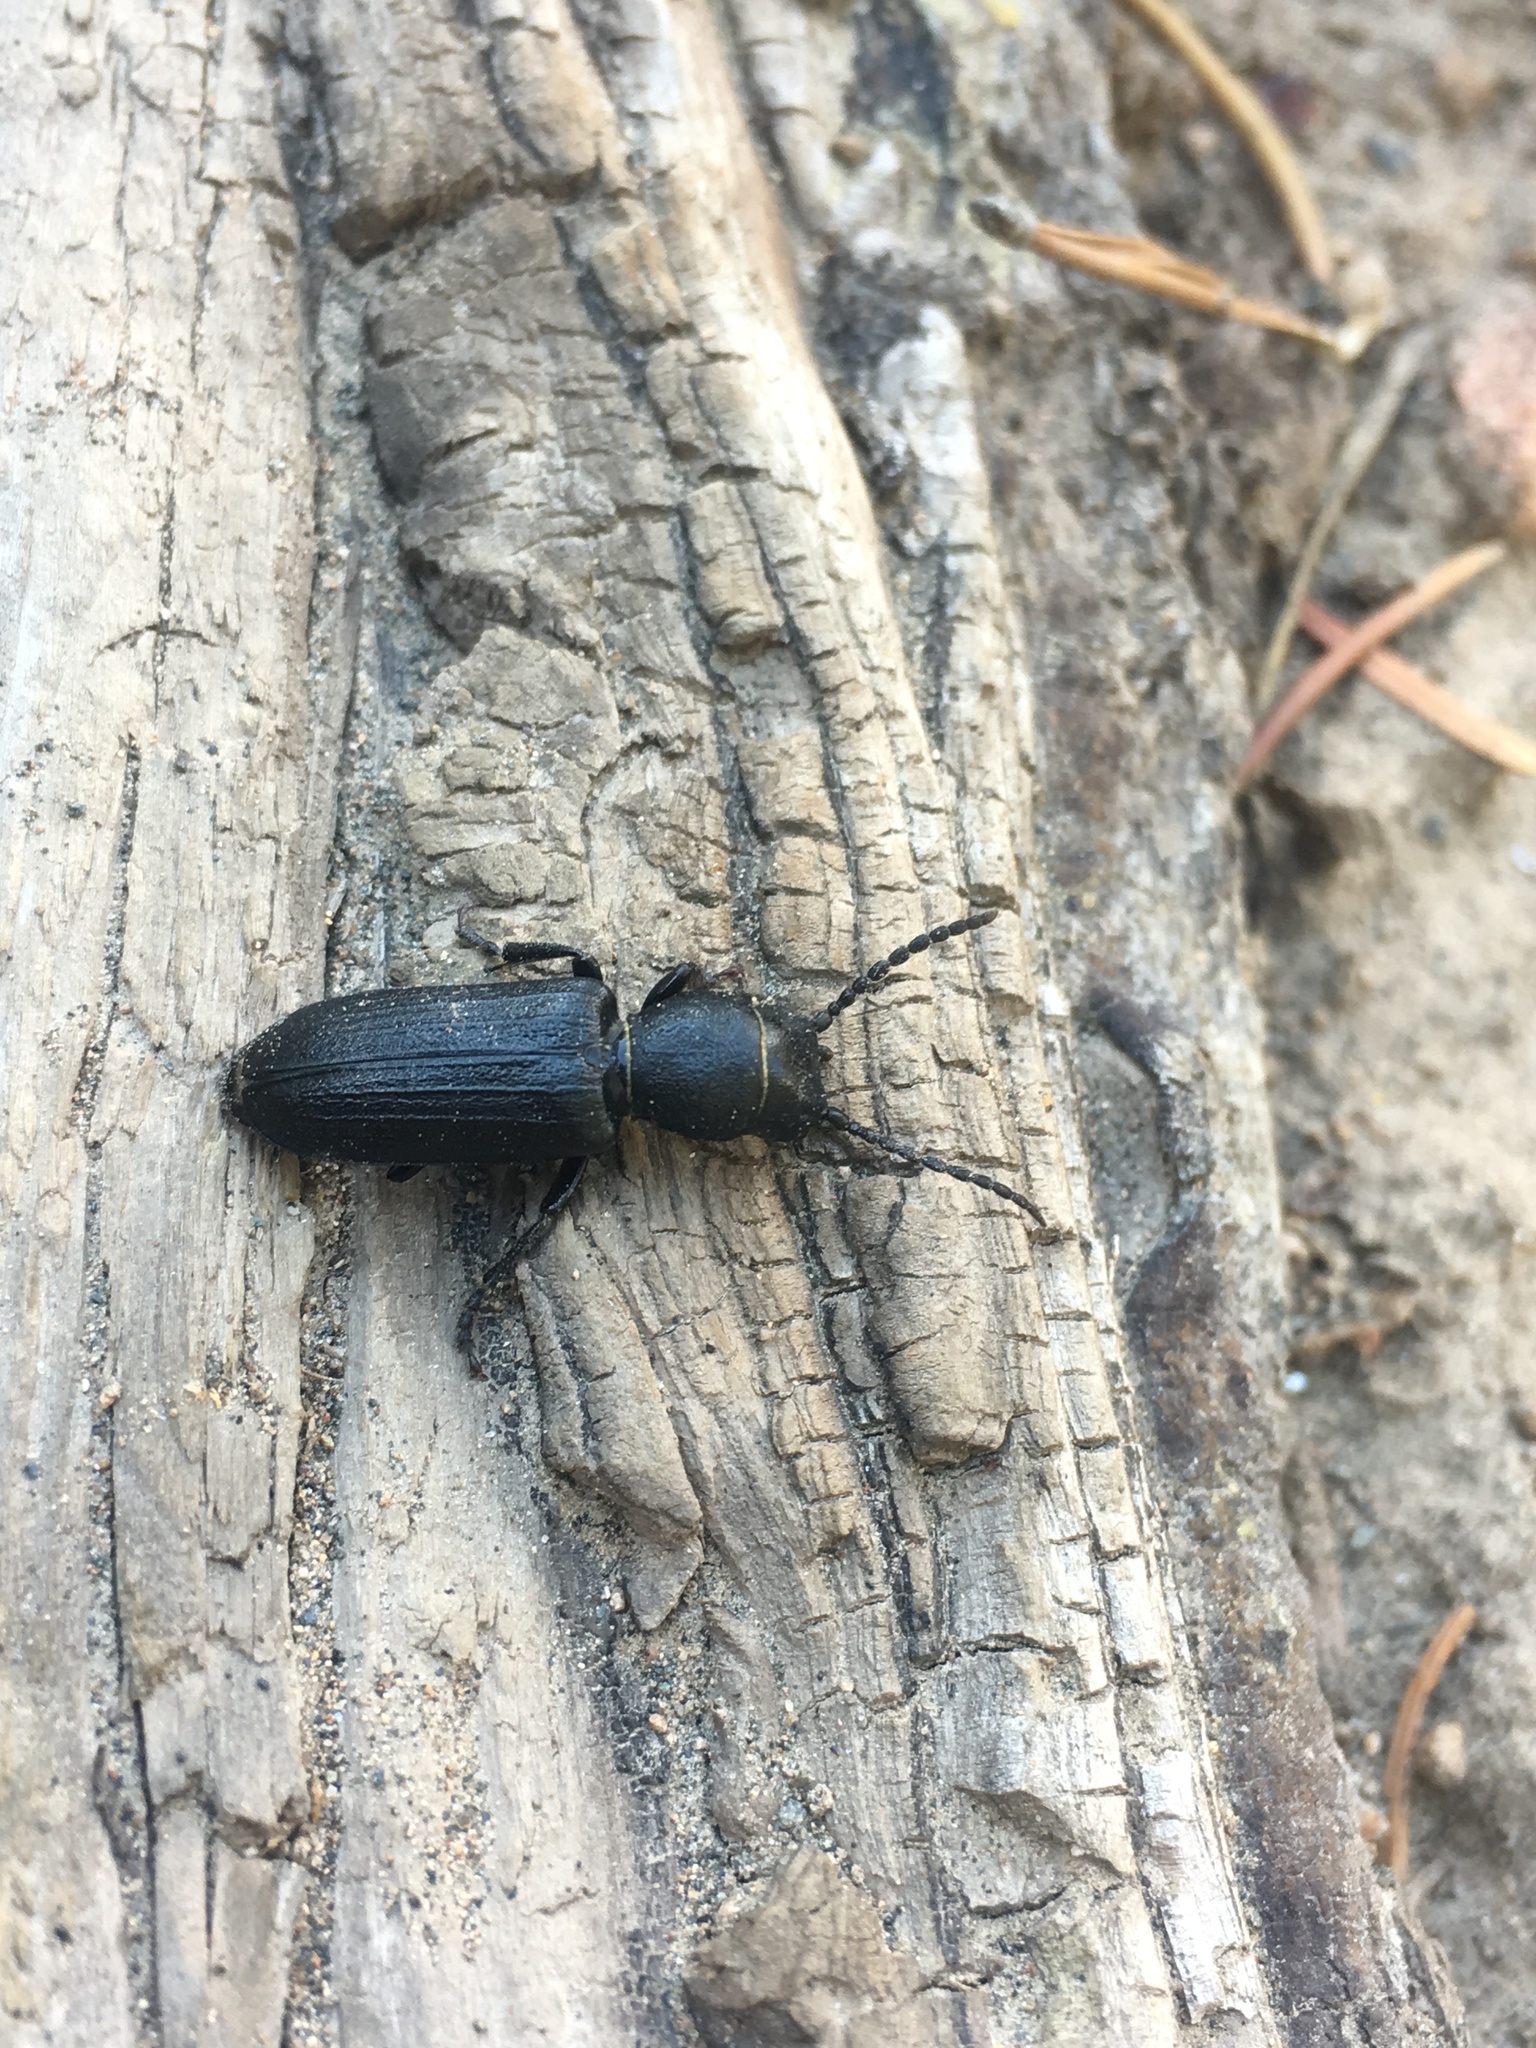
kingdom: Animalia
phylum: Arthropoda
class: Insecta
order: Coleoptera
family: Cerambycidae
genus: Neospondylis
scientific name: Neospondylis upiformis
